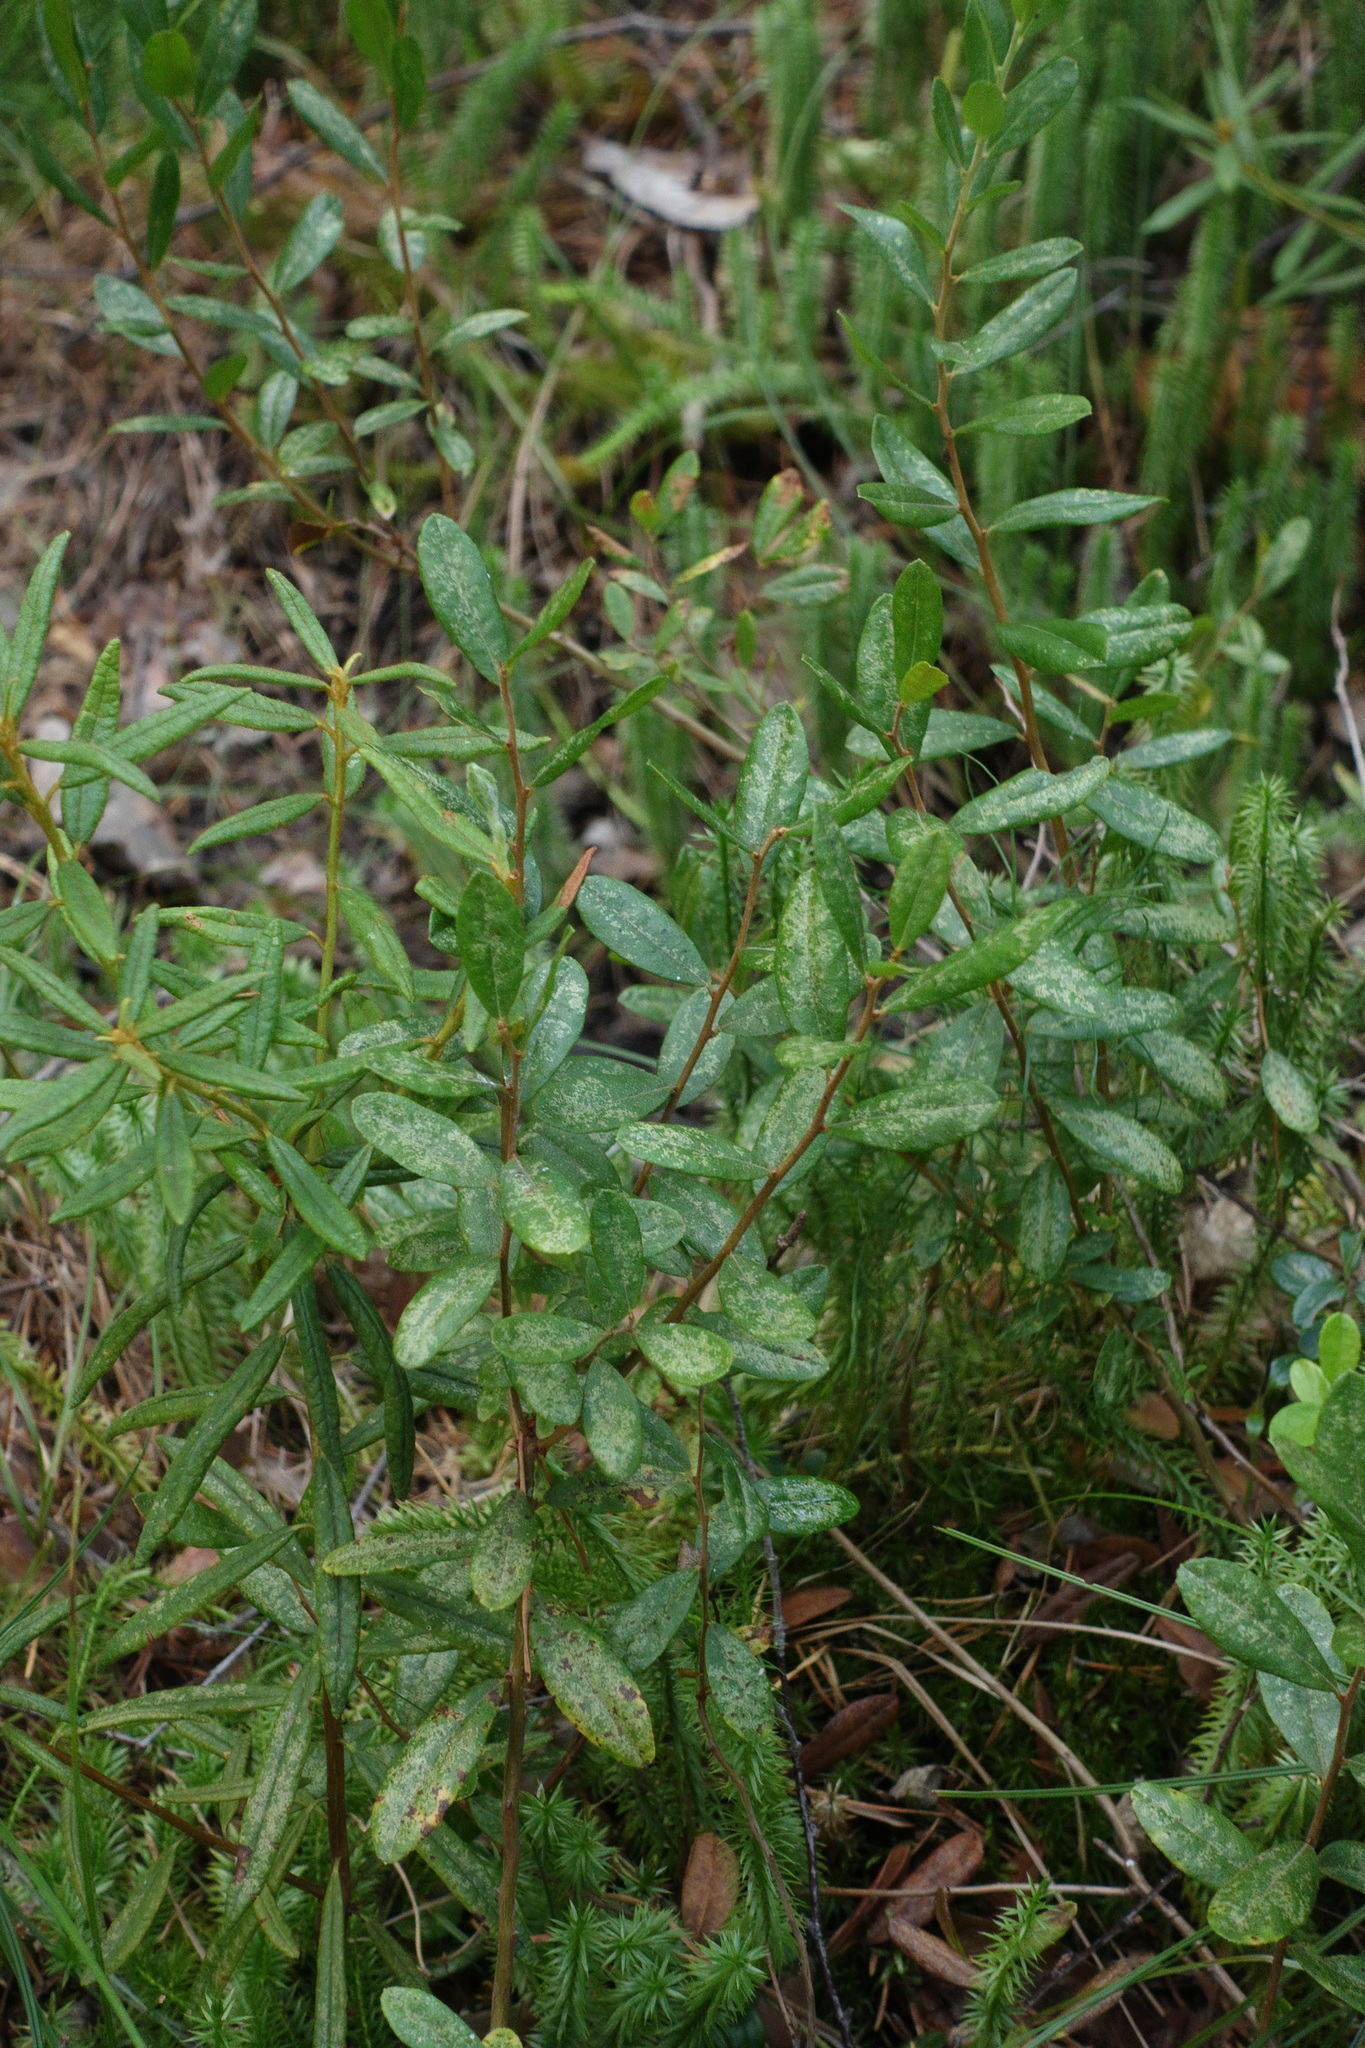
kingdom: Plantae
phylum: Tracheophyta
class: Magnoliopsida
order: Ericales
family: Ericaceae
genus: Chamaedaphne
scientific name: Chamaedaphne calyculata
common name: Leatherleaf
